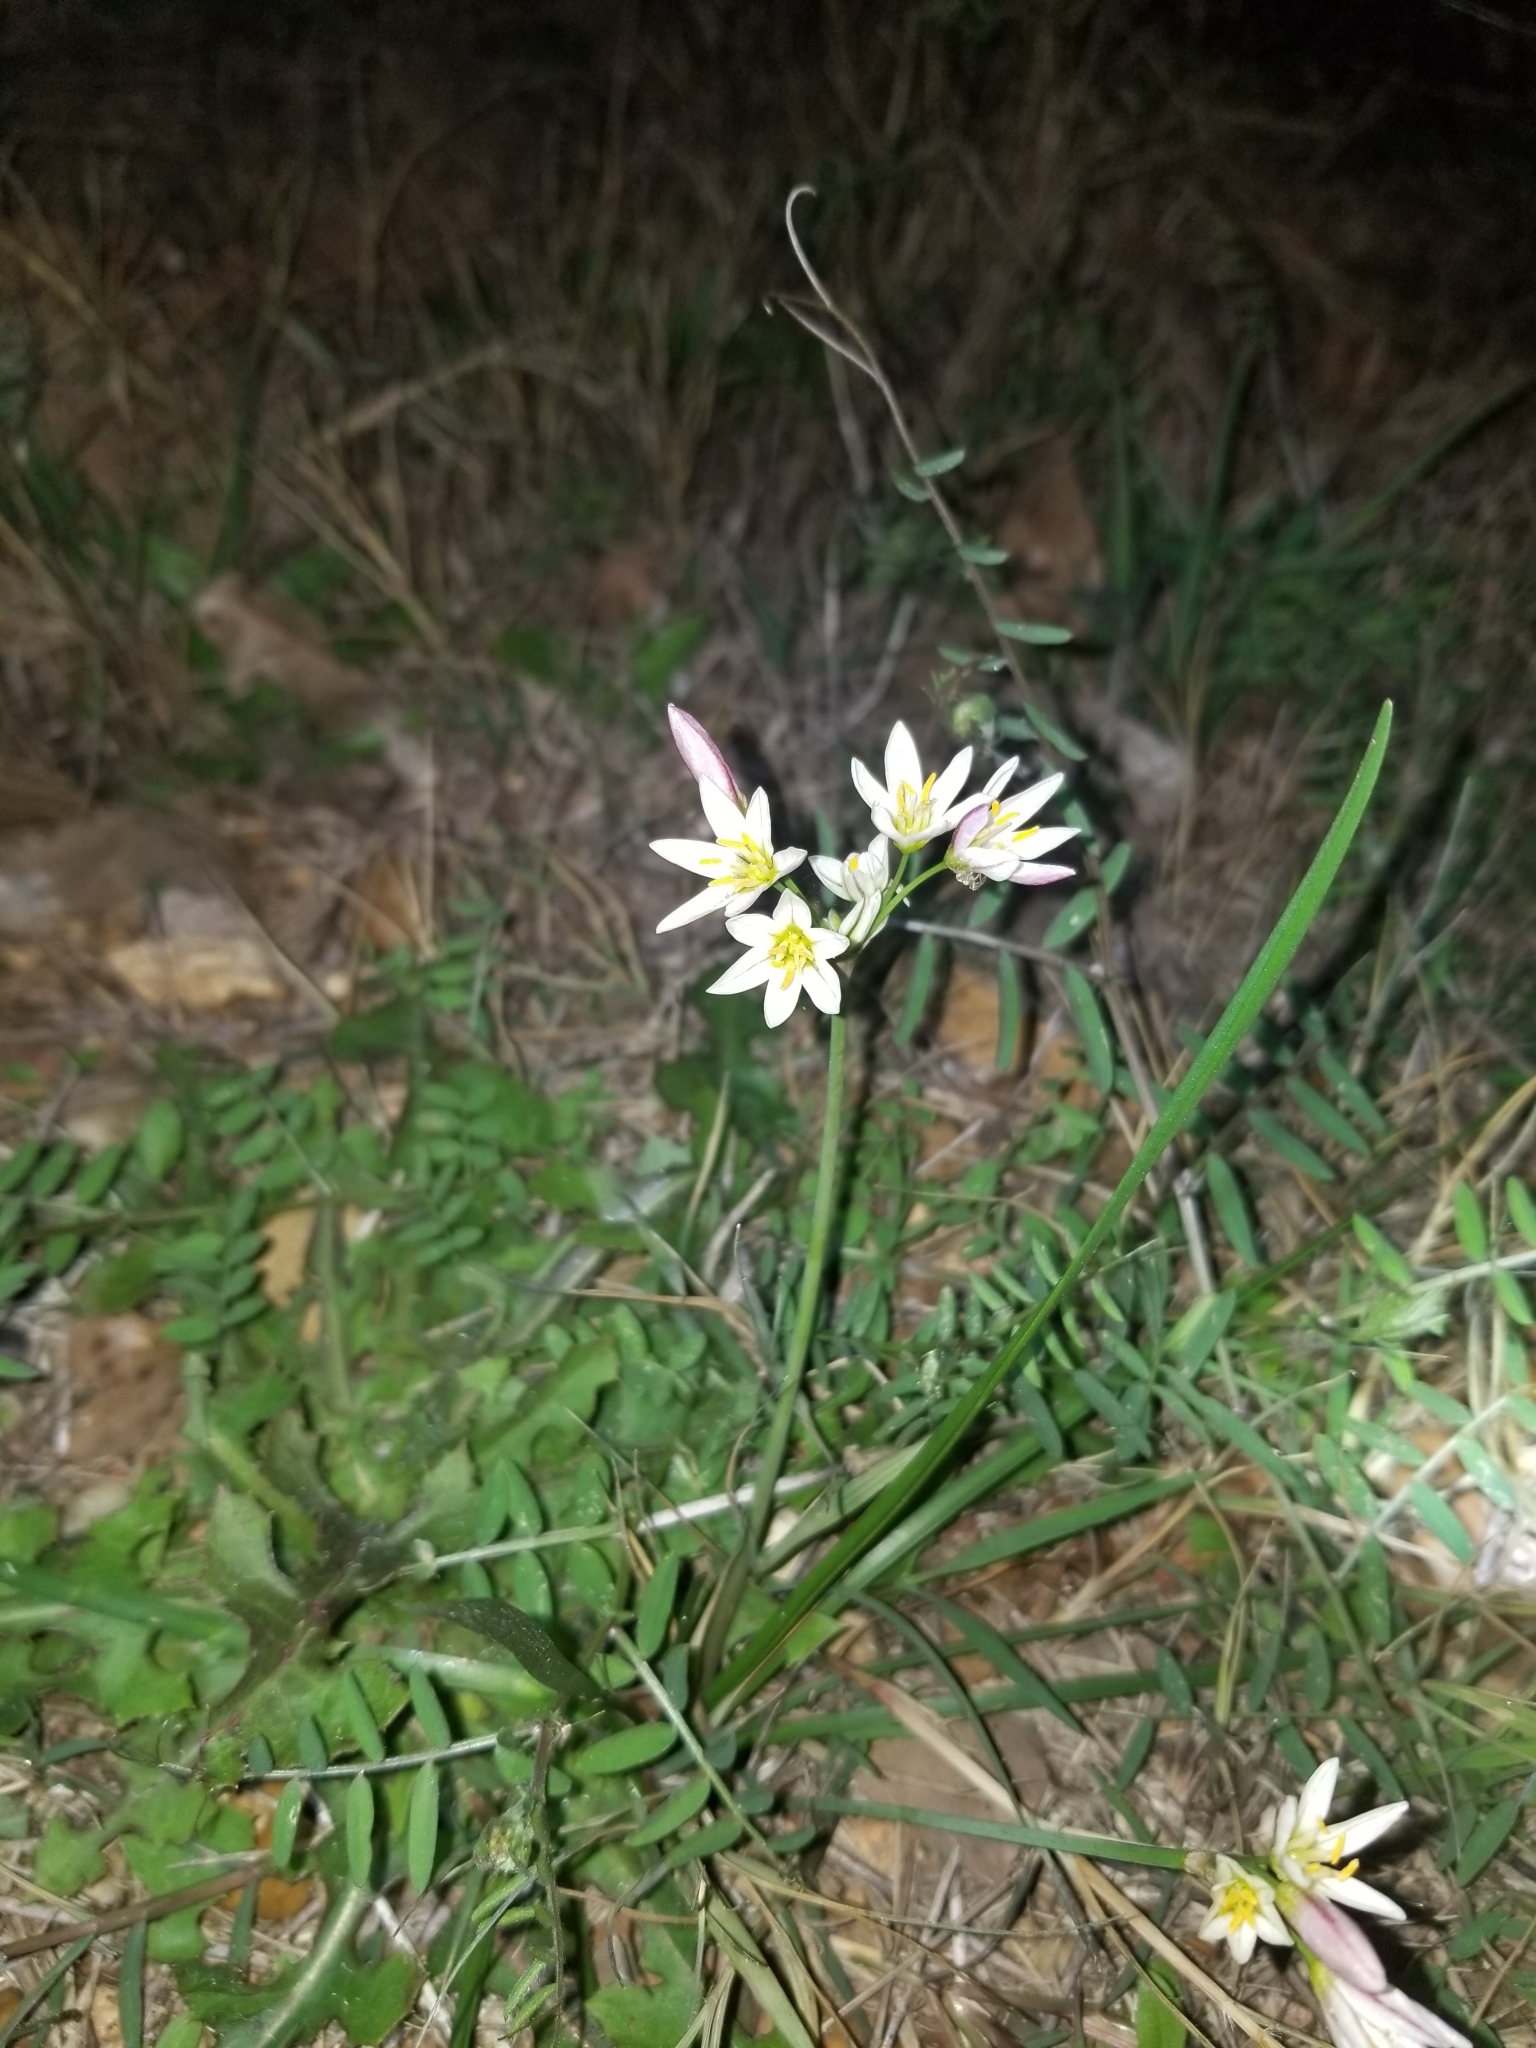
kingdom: Plantae
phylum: Tracheophyta
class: Liliopsida
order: Asparagales
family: Amaryllidaceae
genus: Nothoscordum
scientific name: Nothoscordum bivalve
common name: Crow-poison
